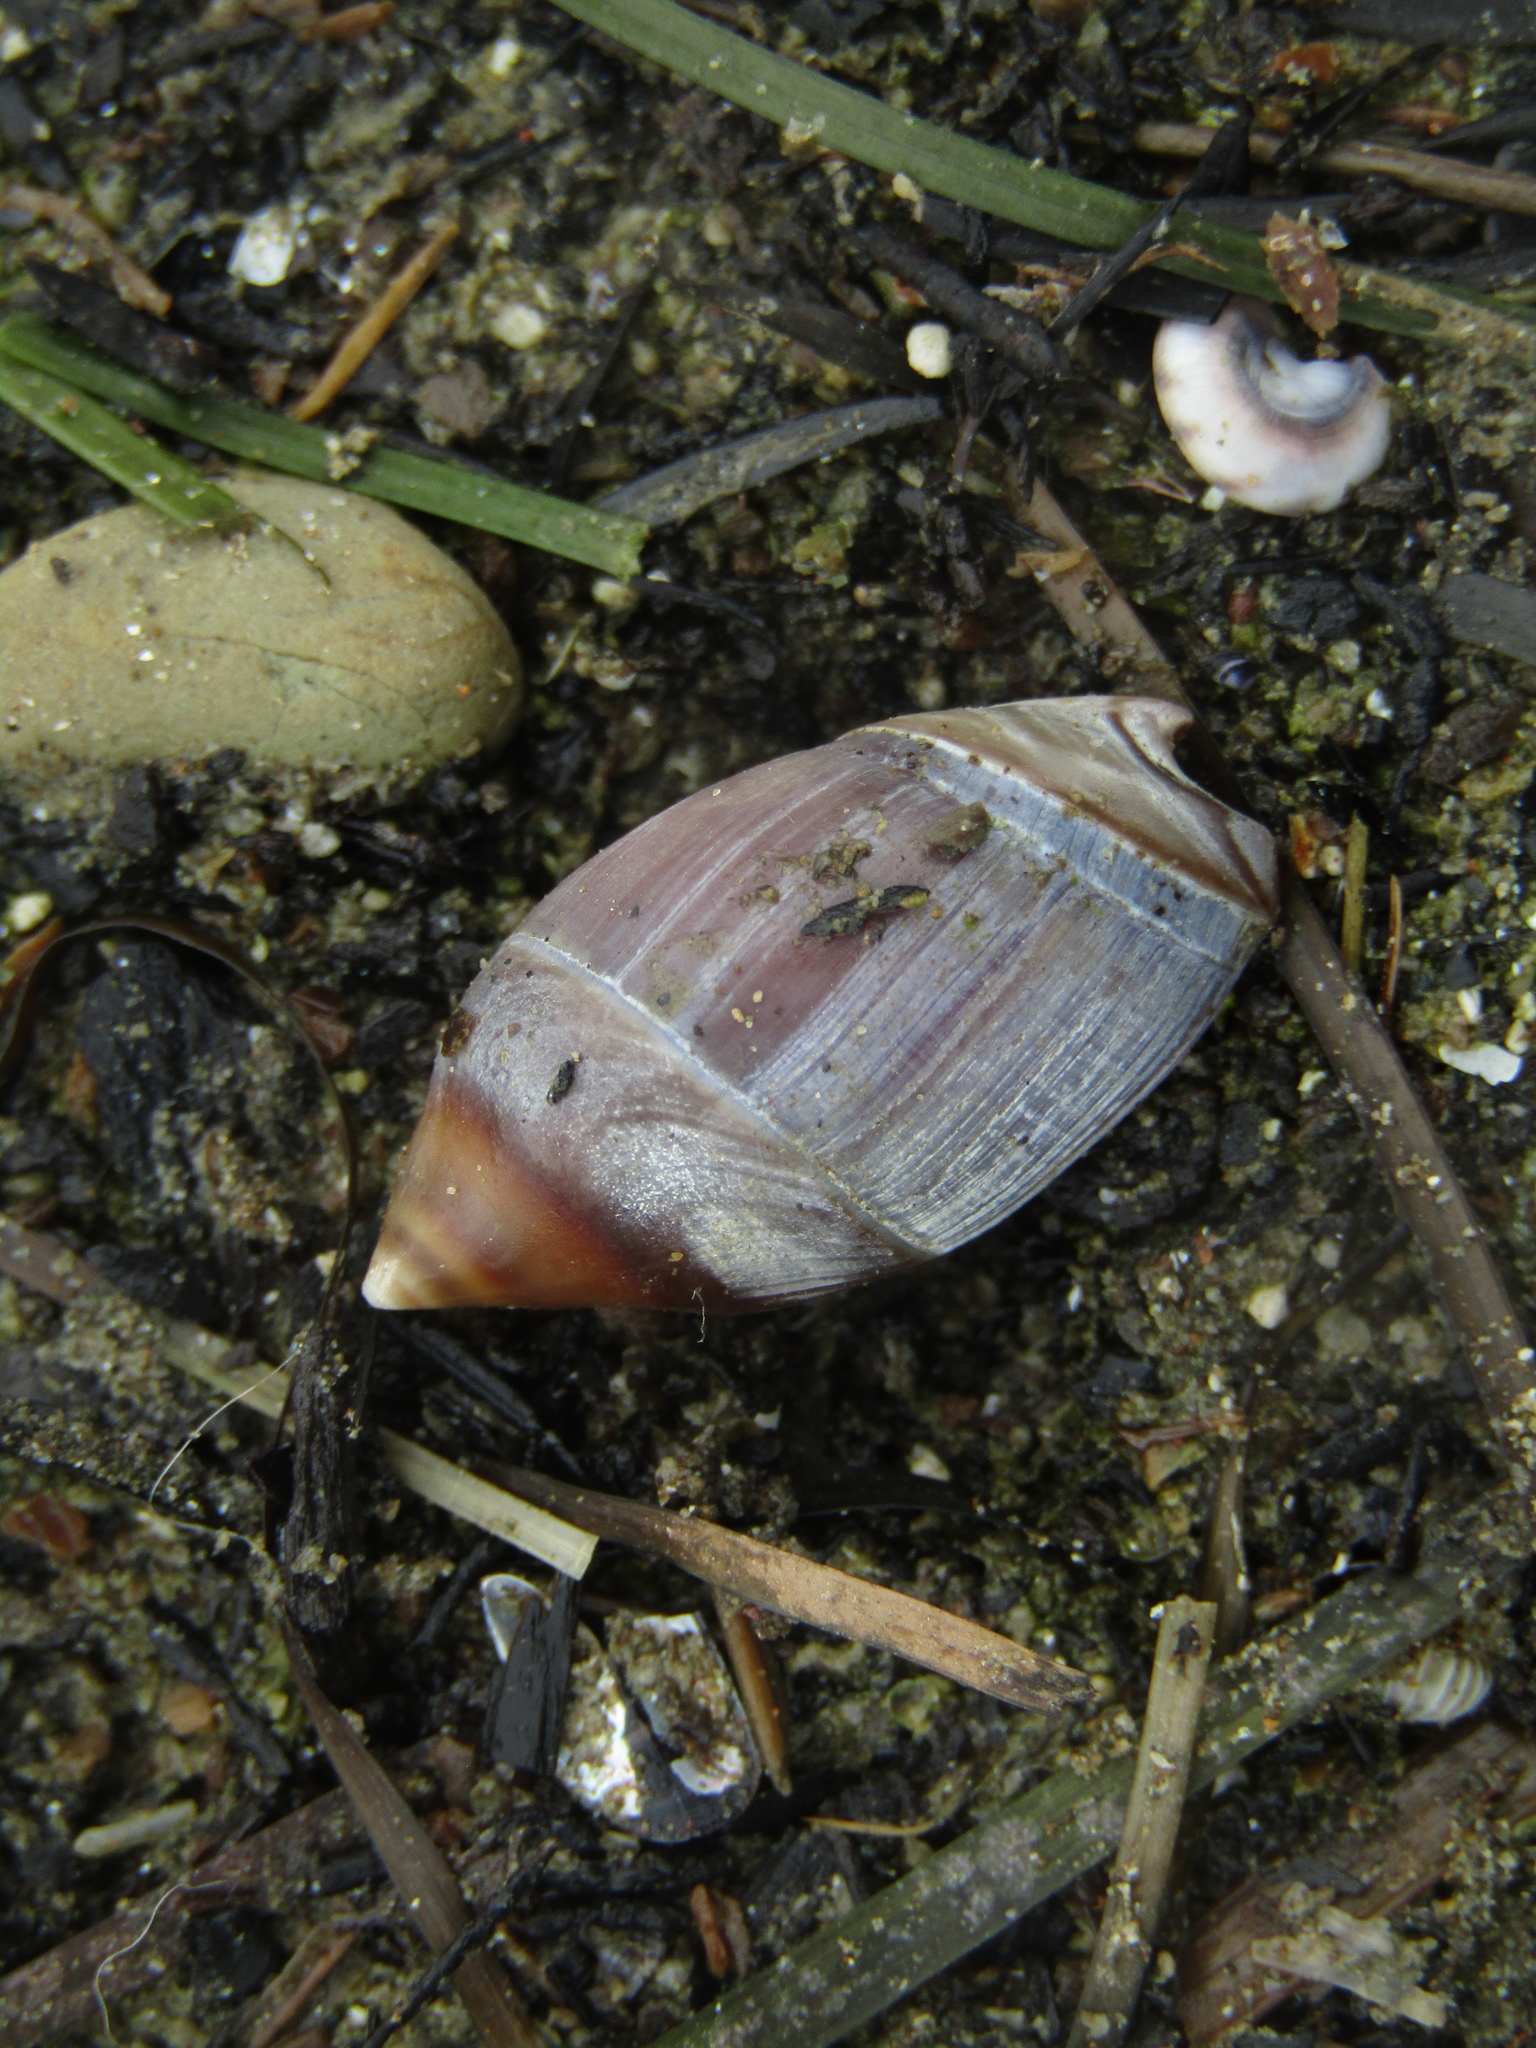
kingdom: Animalia
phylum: Mollusca
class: Gastropoda
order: Neogastropoda
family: Ancillariidae
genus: Amalda
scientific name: Amalda australis
